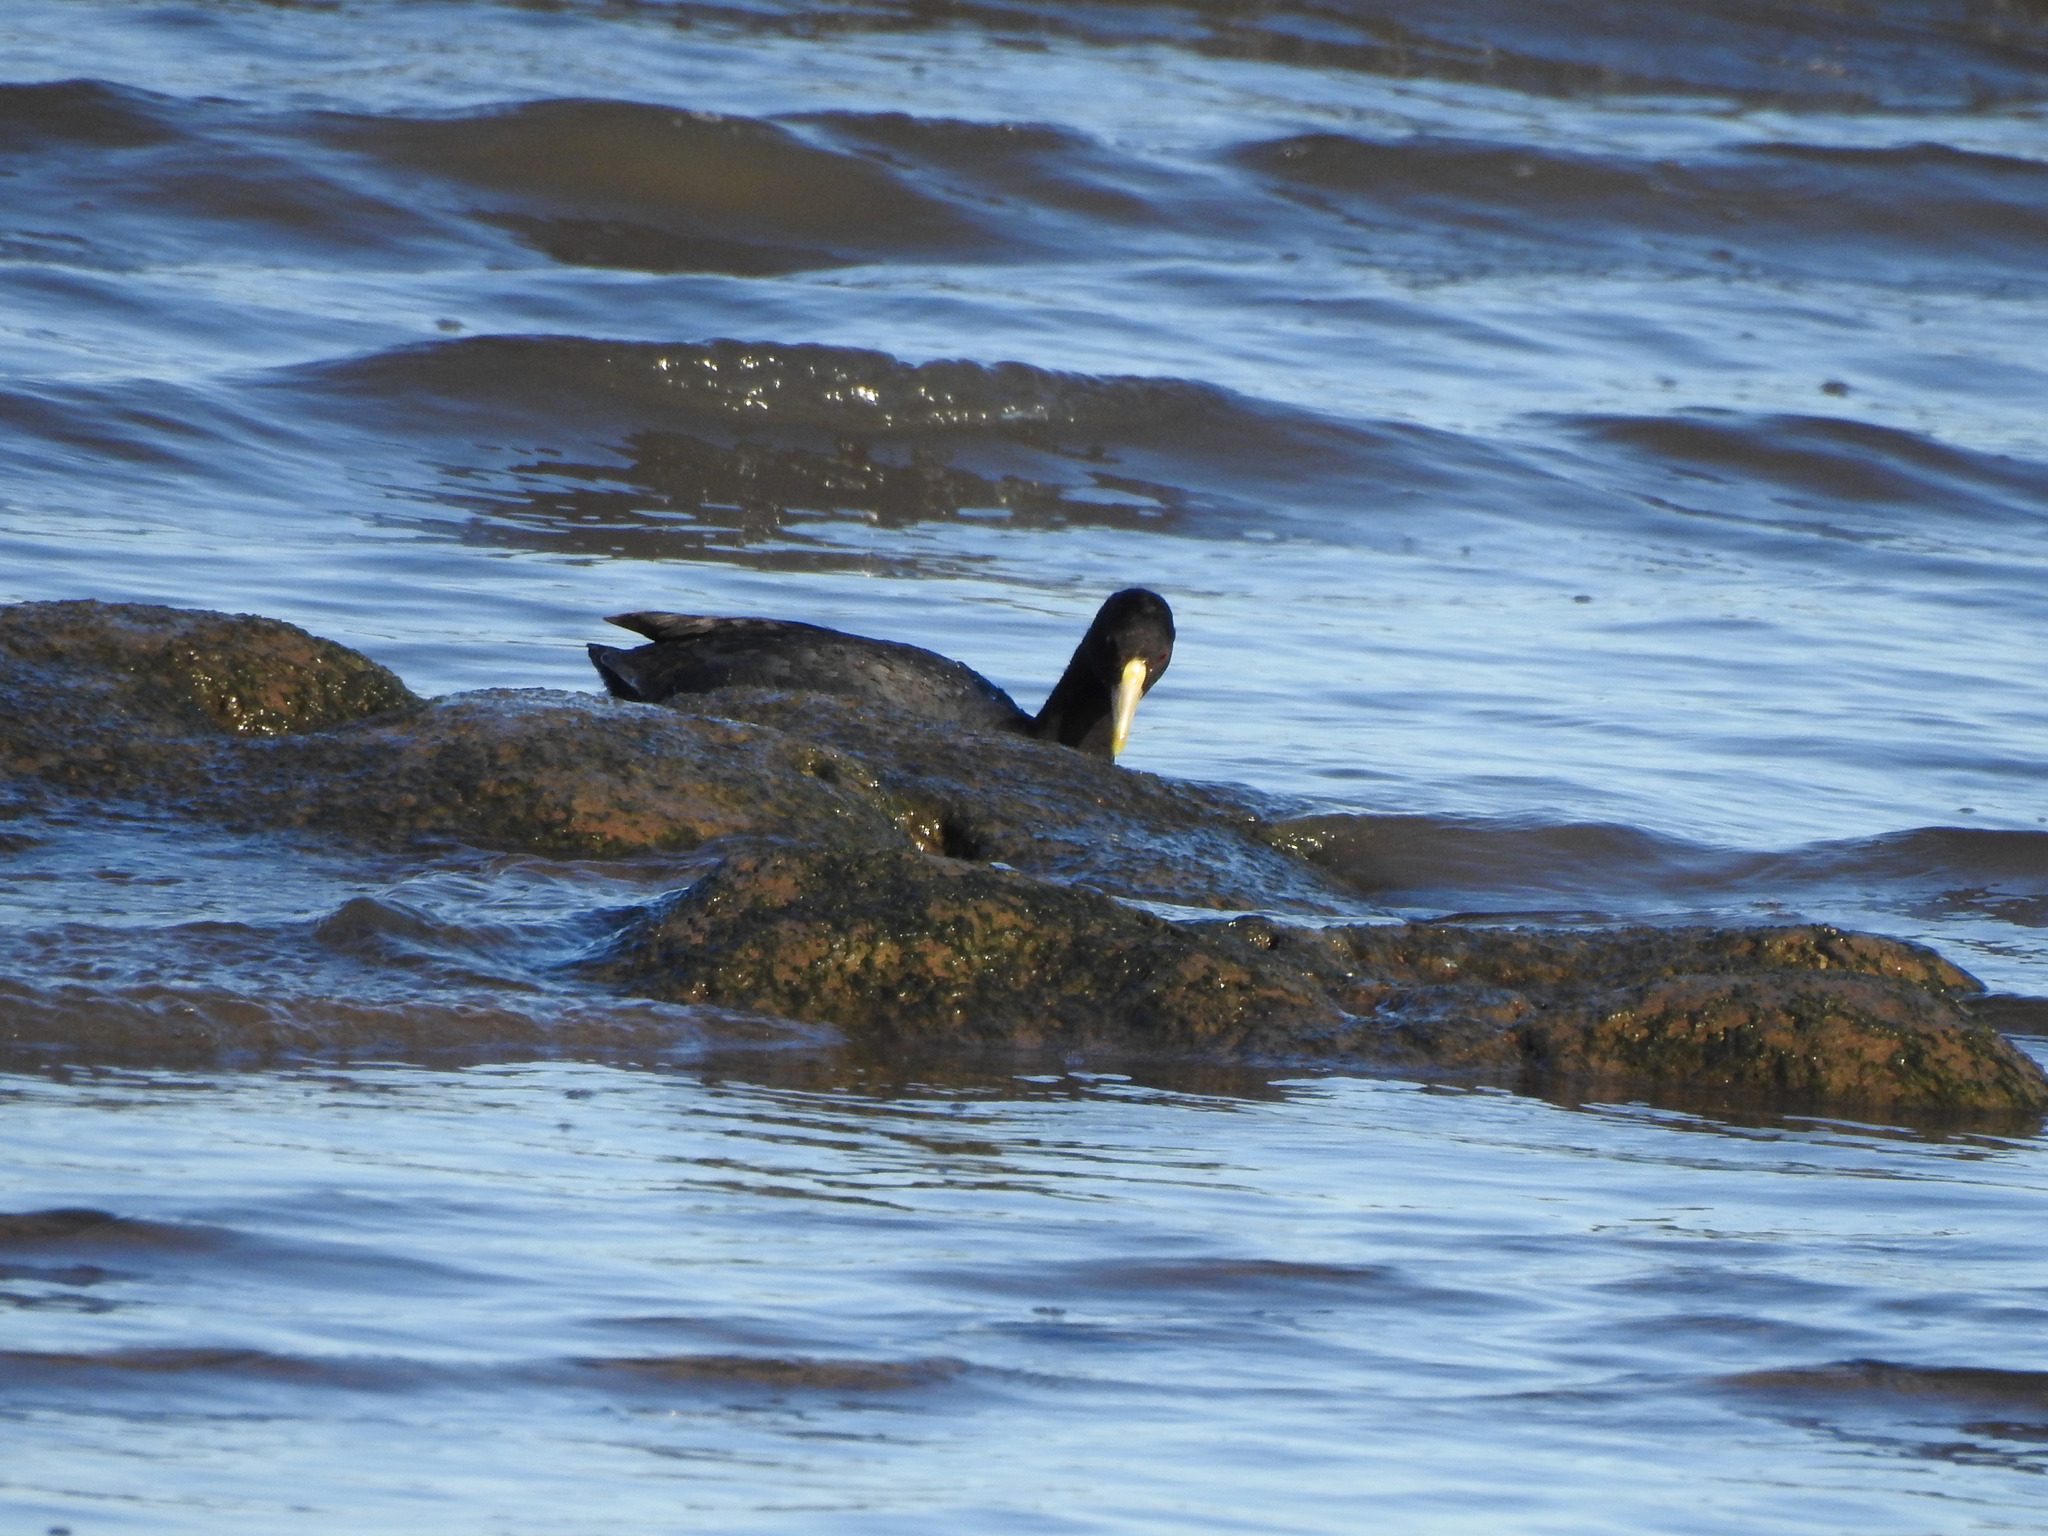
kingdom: Animalia
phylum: Chordata
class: Aves
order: Gruiformes
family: Rallidae
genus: Fulica
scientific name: Fulica leucoptera
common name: White-winged coot
